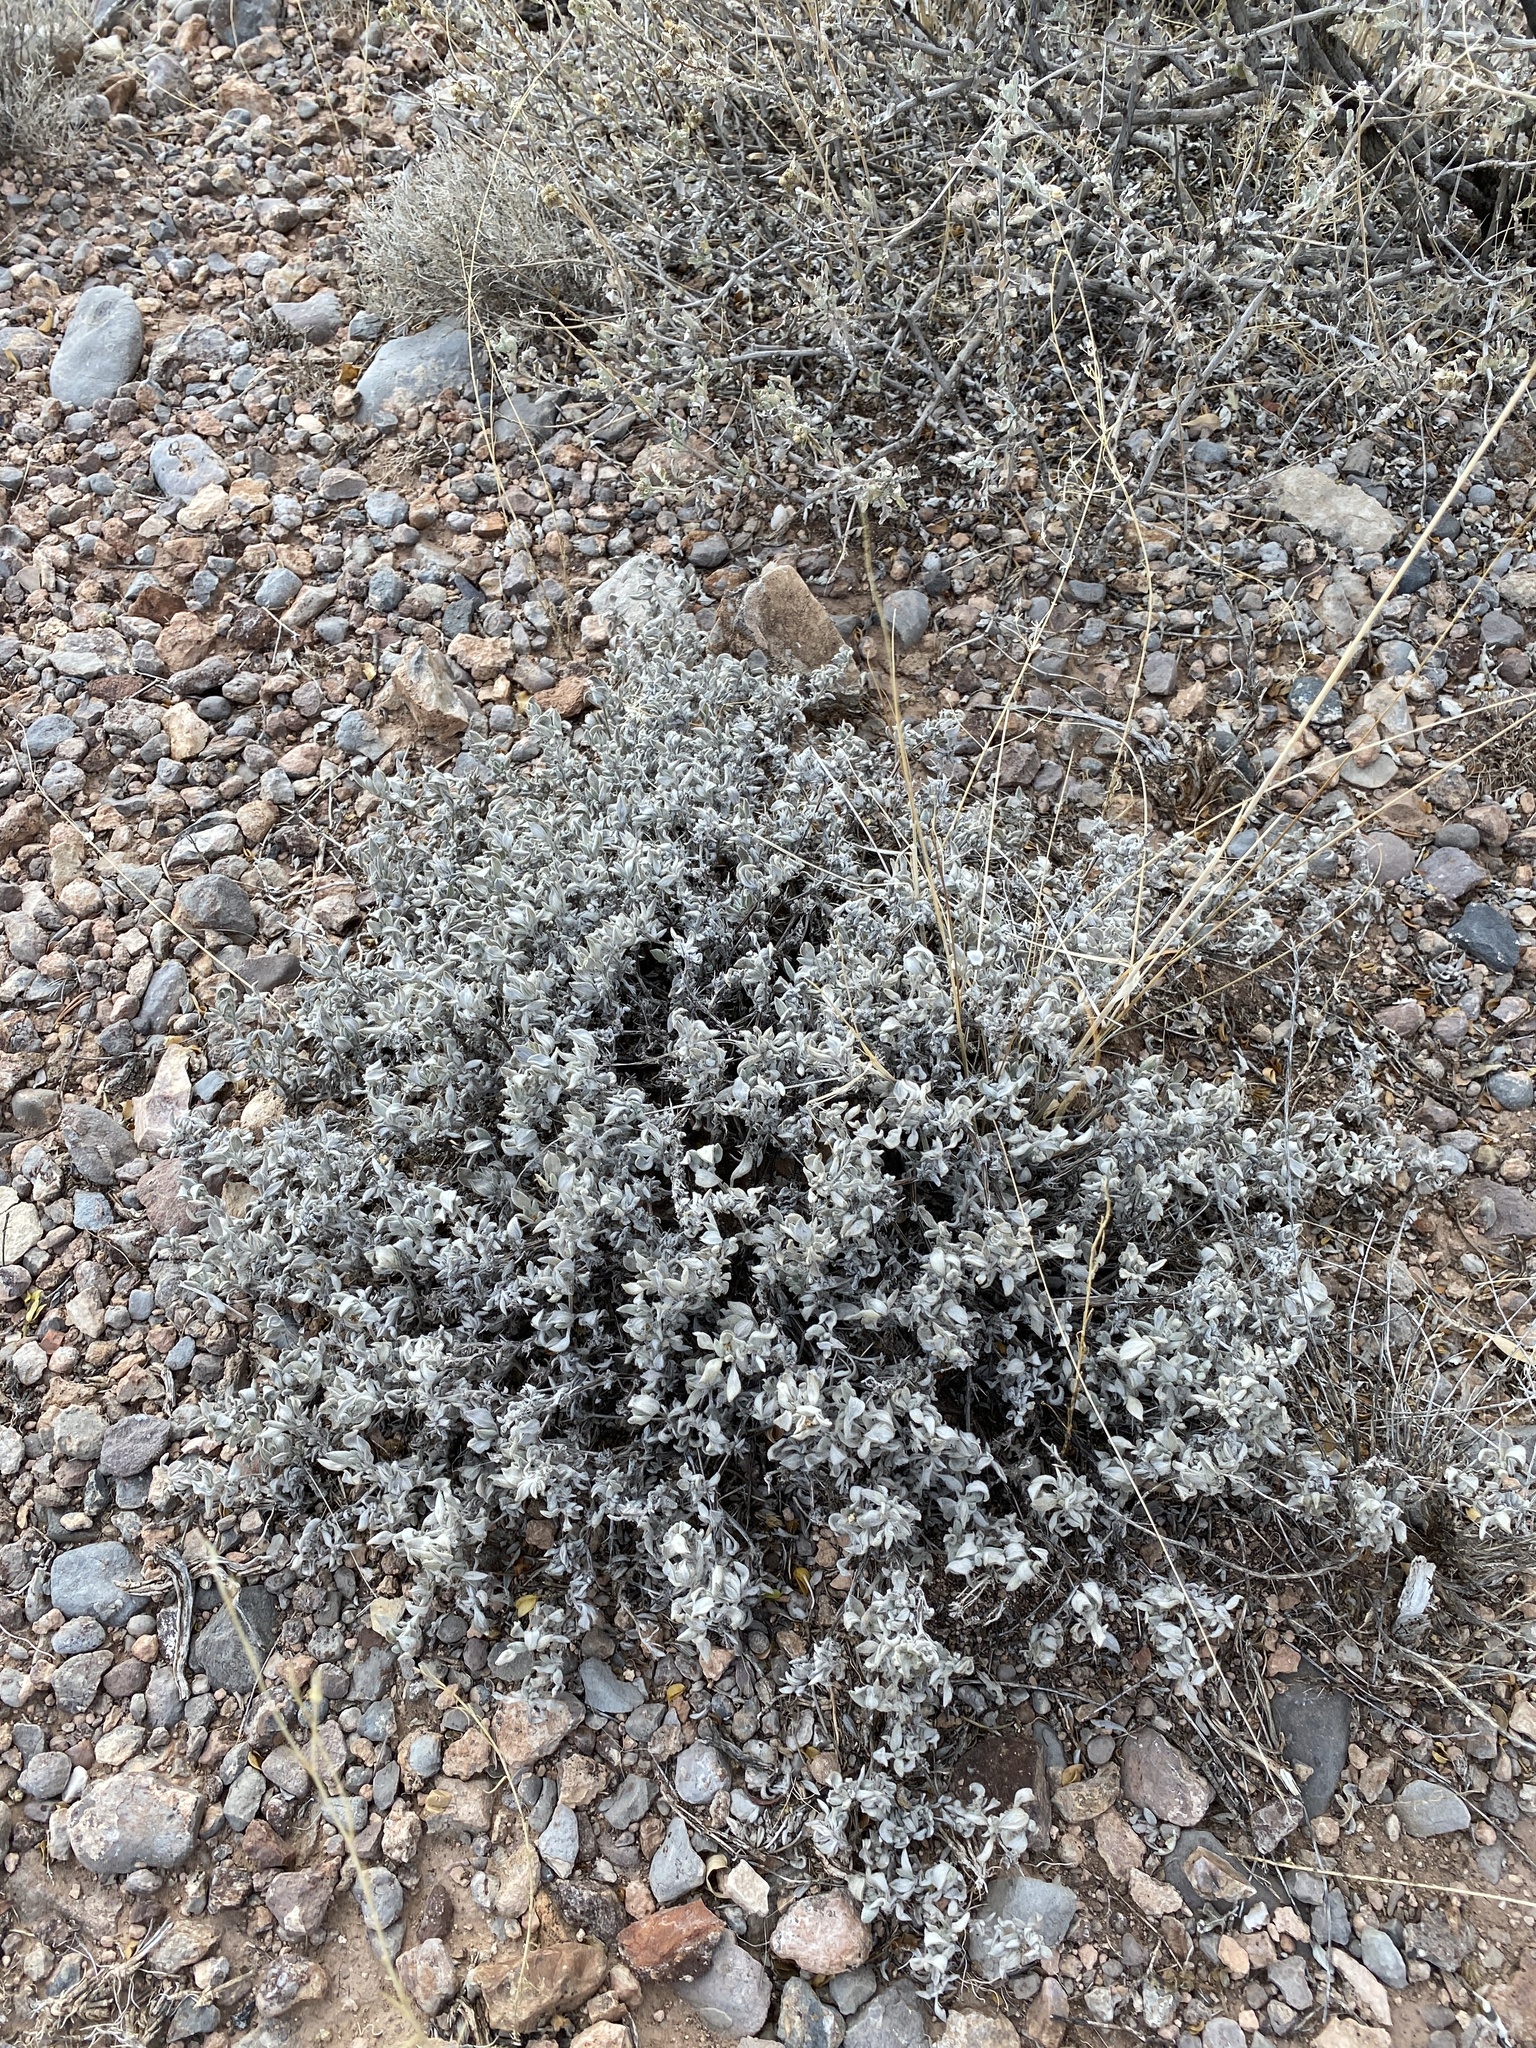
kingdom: Plantae
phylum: Tracheophyta
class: Magnoliopsida
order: Boraginales
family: Ehretiaceae
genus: Tiquilia
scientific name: Tiquilia canescens
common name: Hairy tiquilia
